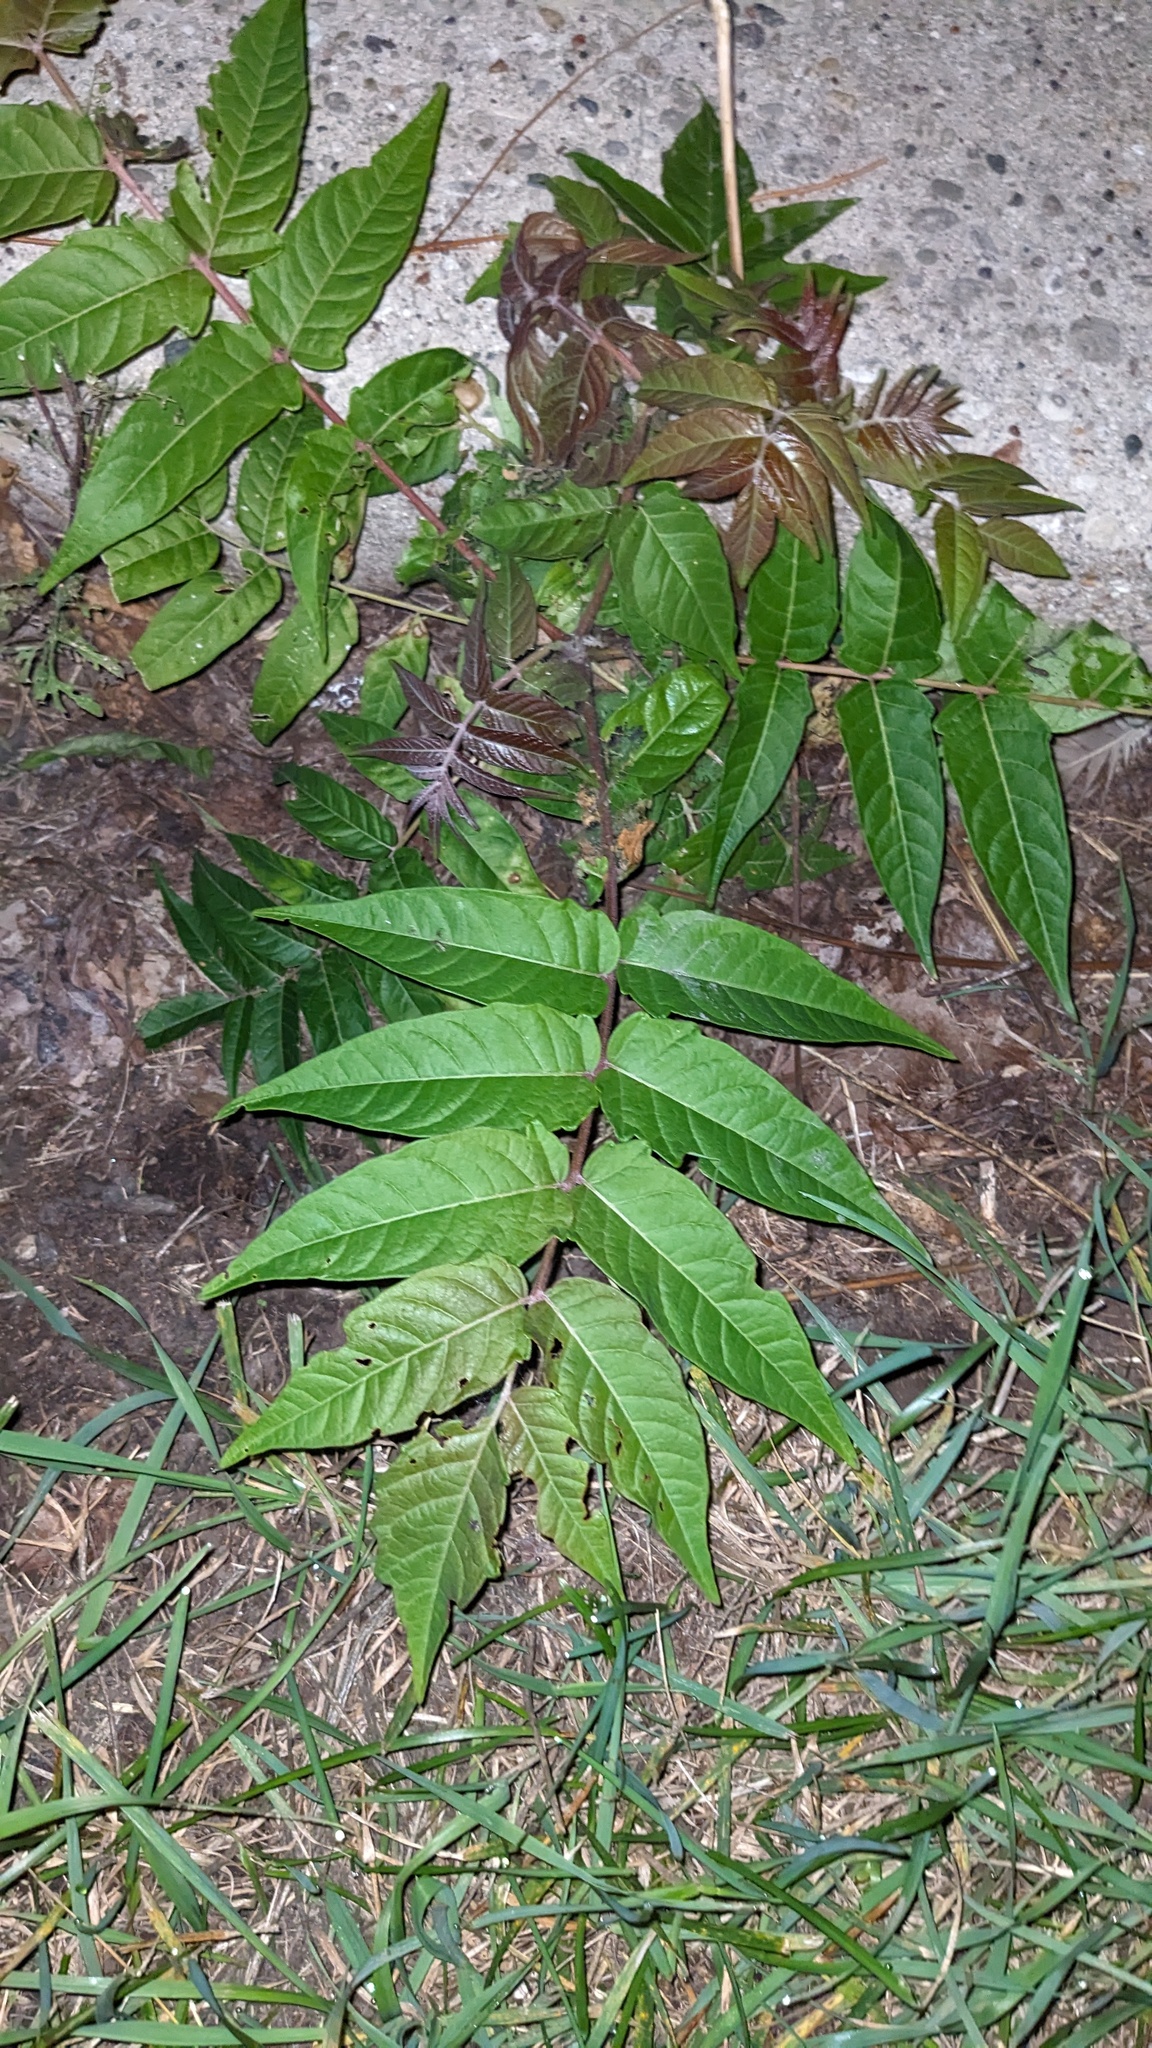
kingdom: Plantae
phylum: Tracheophyta
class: Magnoliopsida
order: Sapindales
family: Simaroubaceae
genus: Ailanthus
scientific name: Ailanthus altissima
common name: Tree-of-heaven
